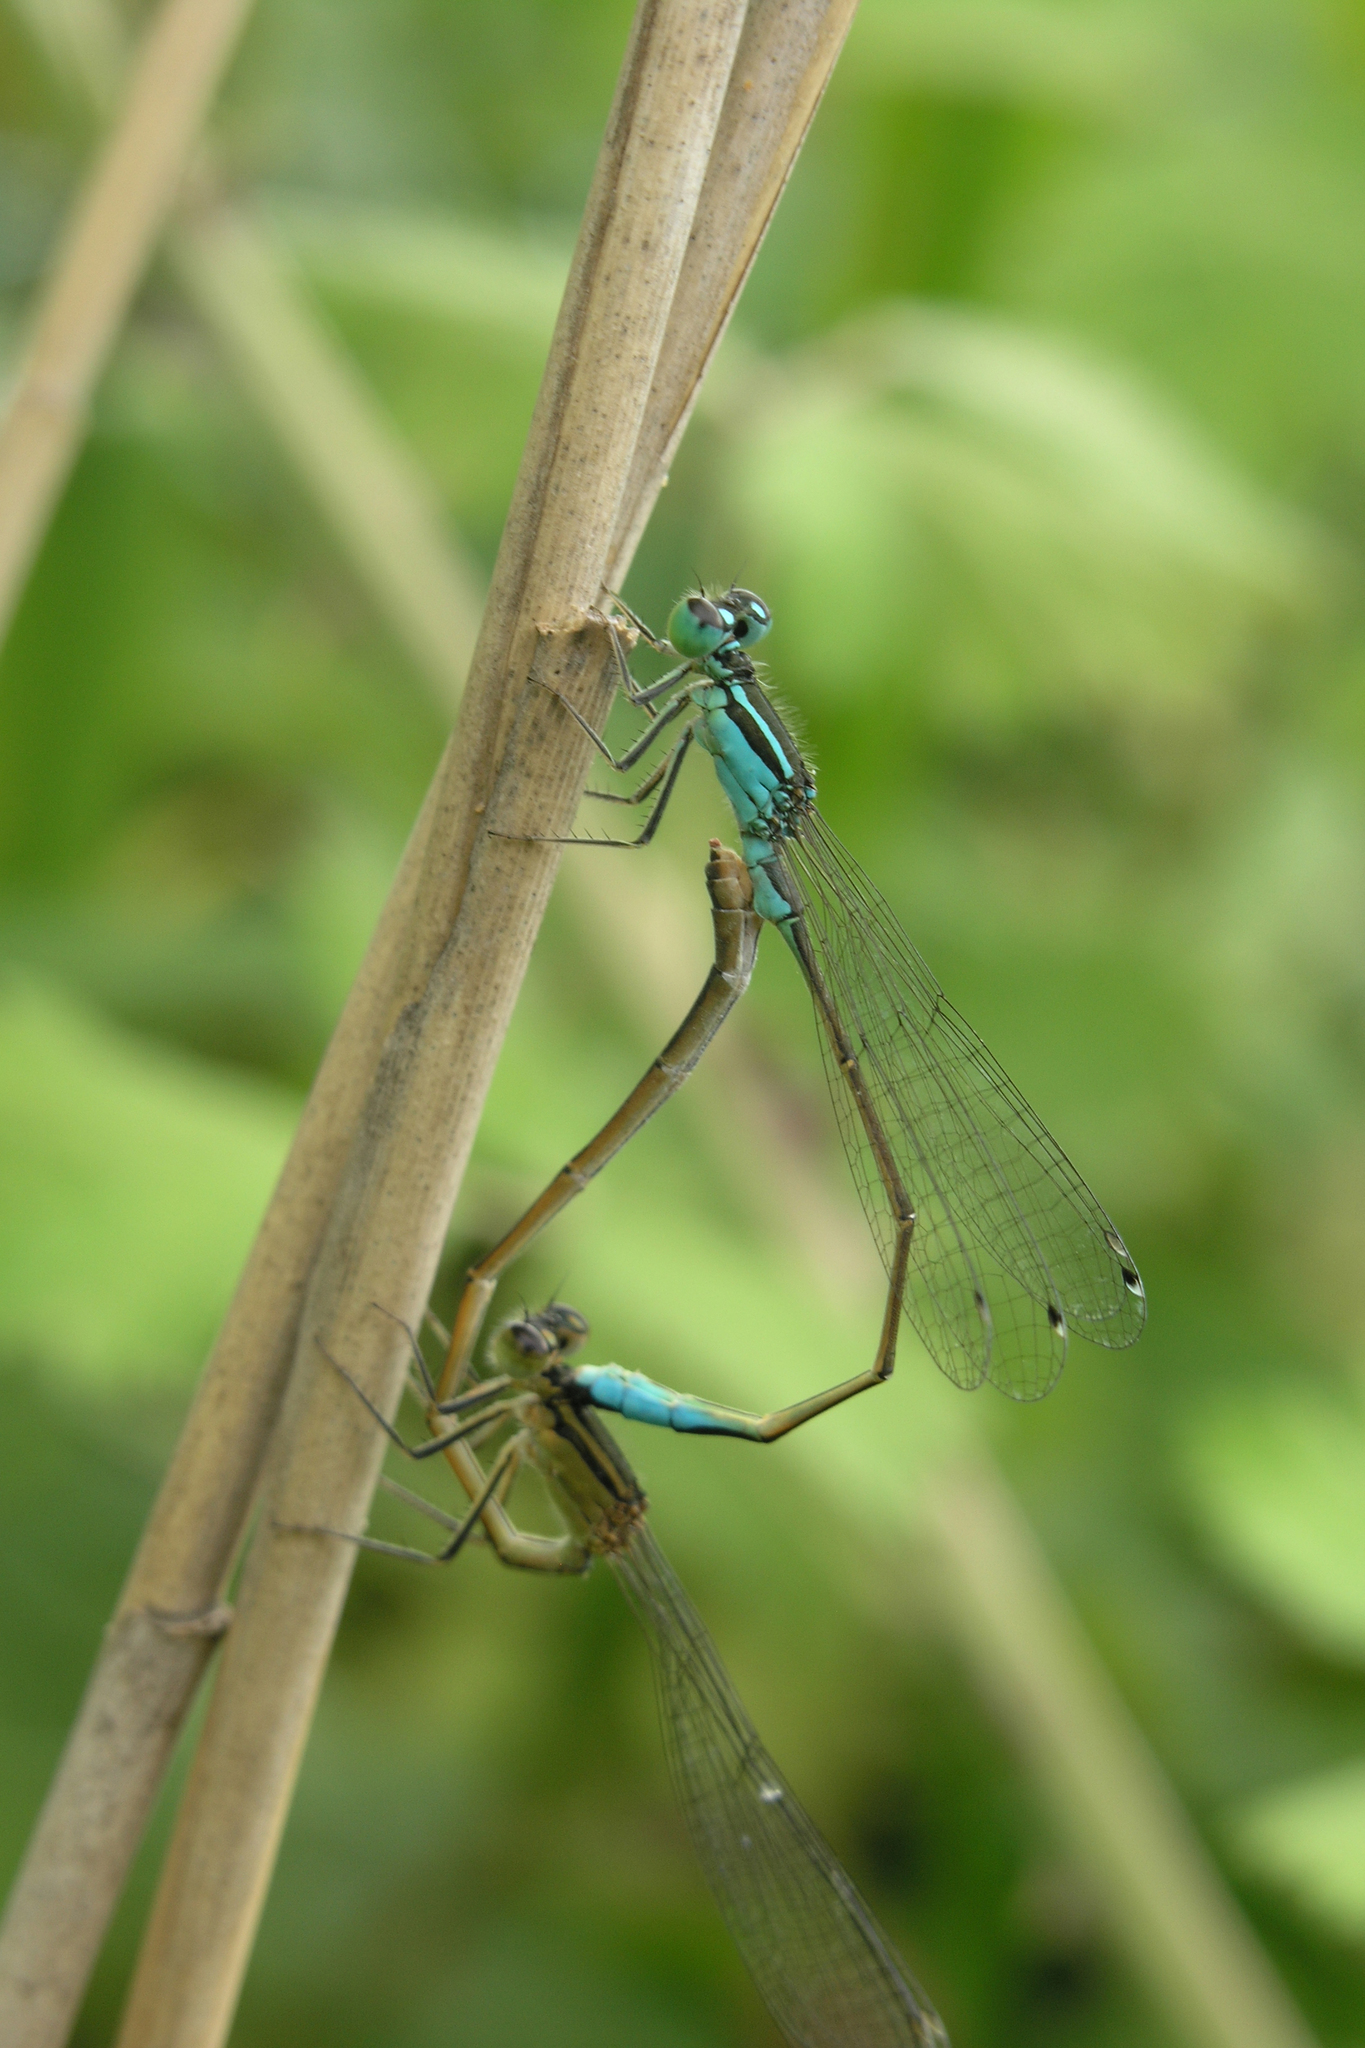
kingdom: Animalia
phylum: Arthropoda
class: Insecta
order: Odonata
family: Coenagrionidae
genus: Ischnura
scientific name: Ischnura elegans
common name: Blue-tailed damselfly
